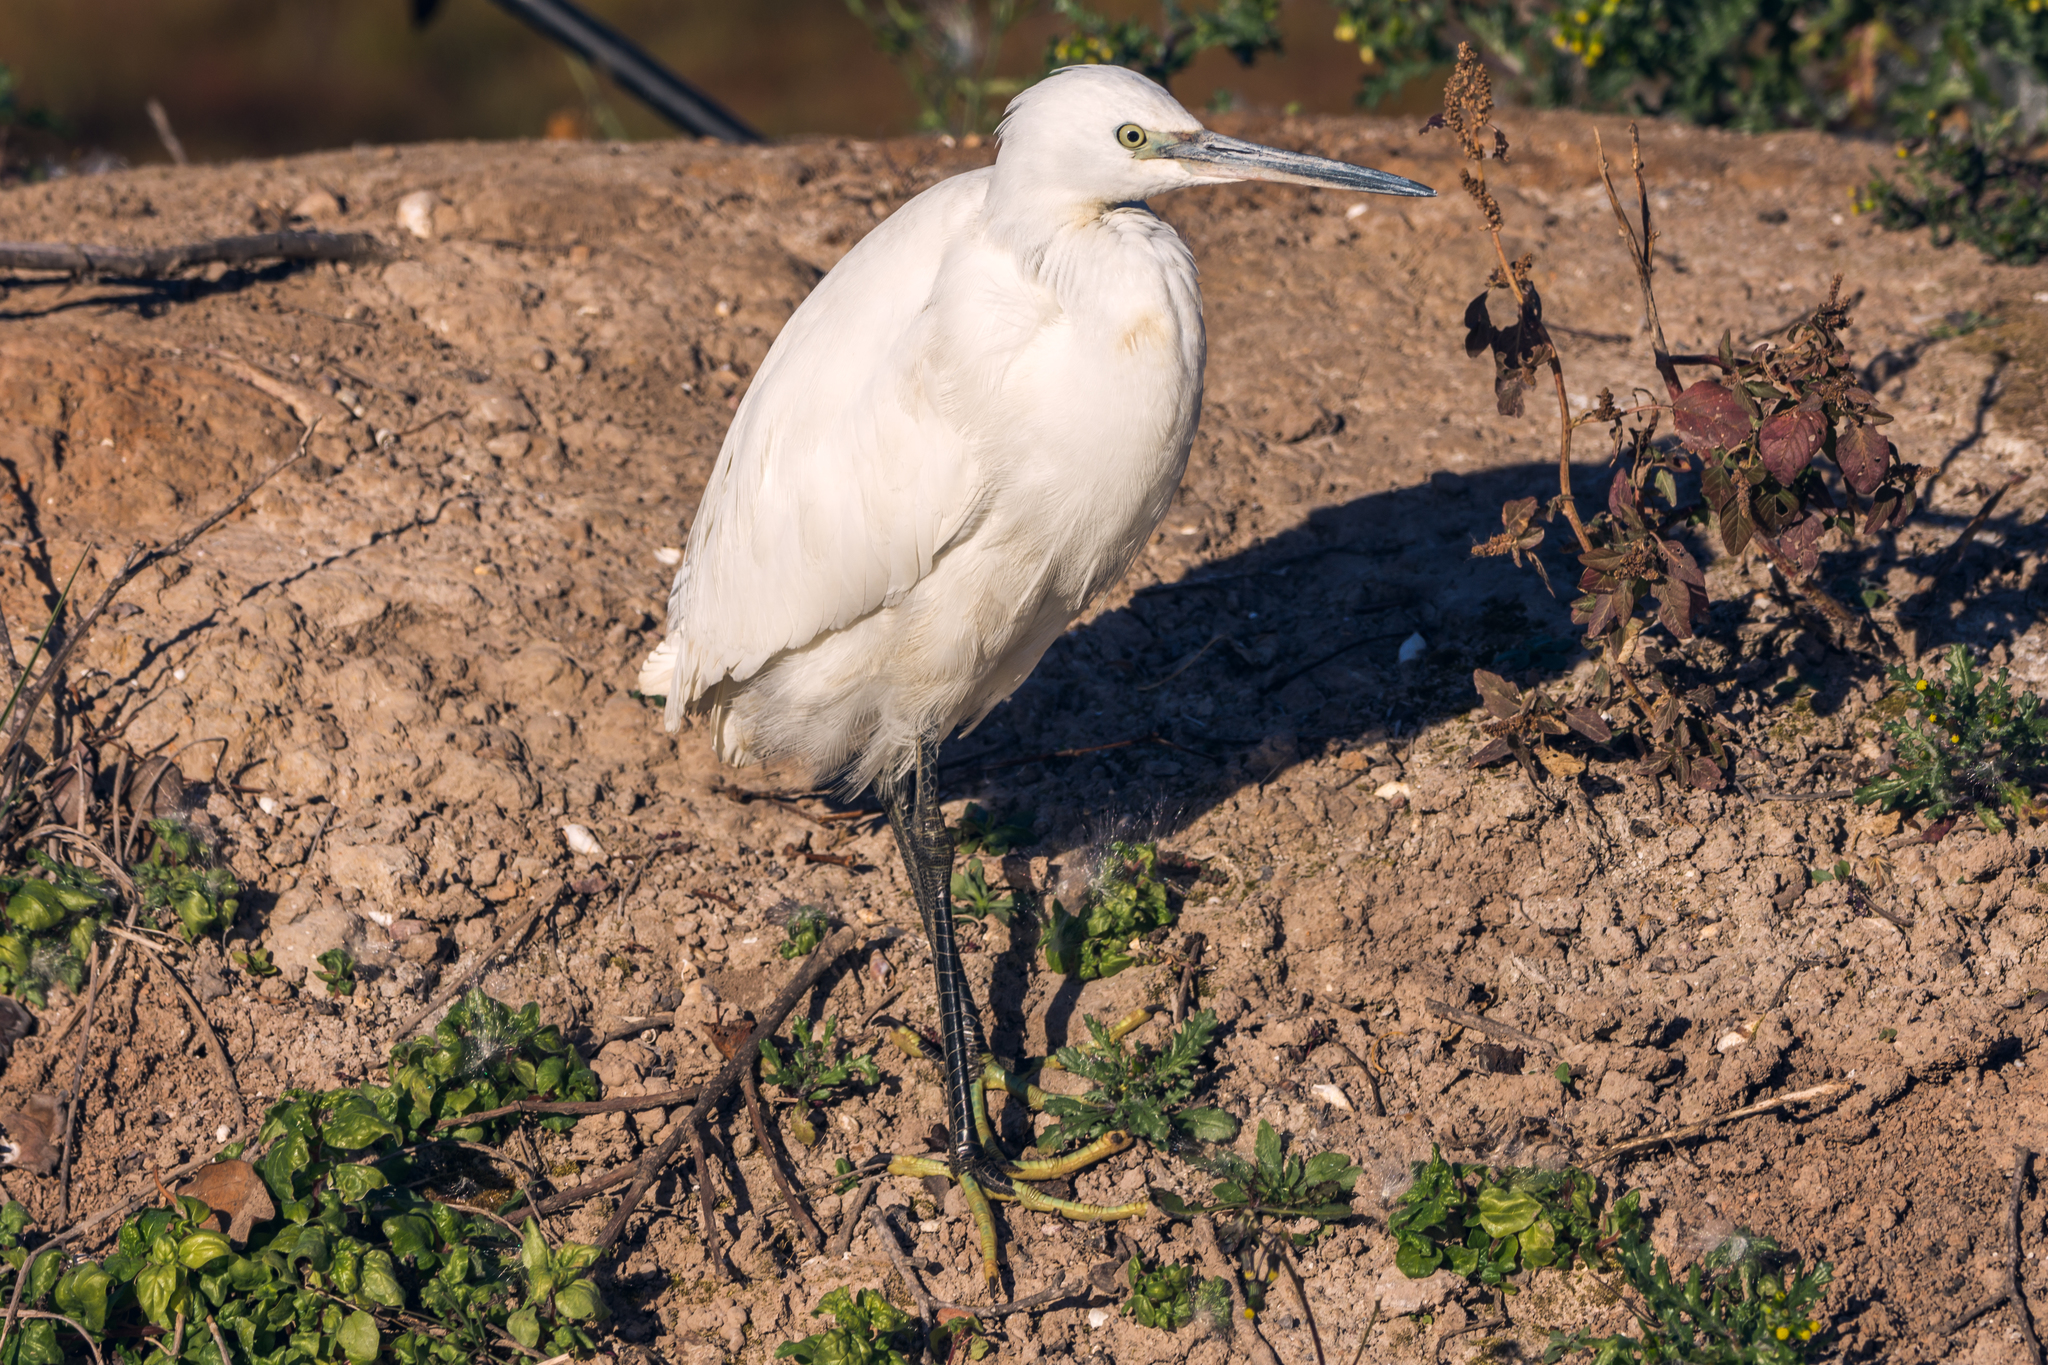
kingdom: Animalia
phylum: Chordata
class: Aves
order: Pelecaniformes
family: Ardeidae
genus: Egretta
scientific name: Egretta garzetta
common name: Little egret
